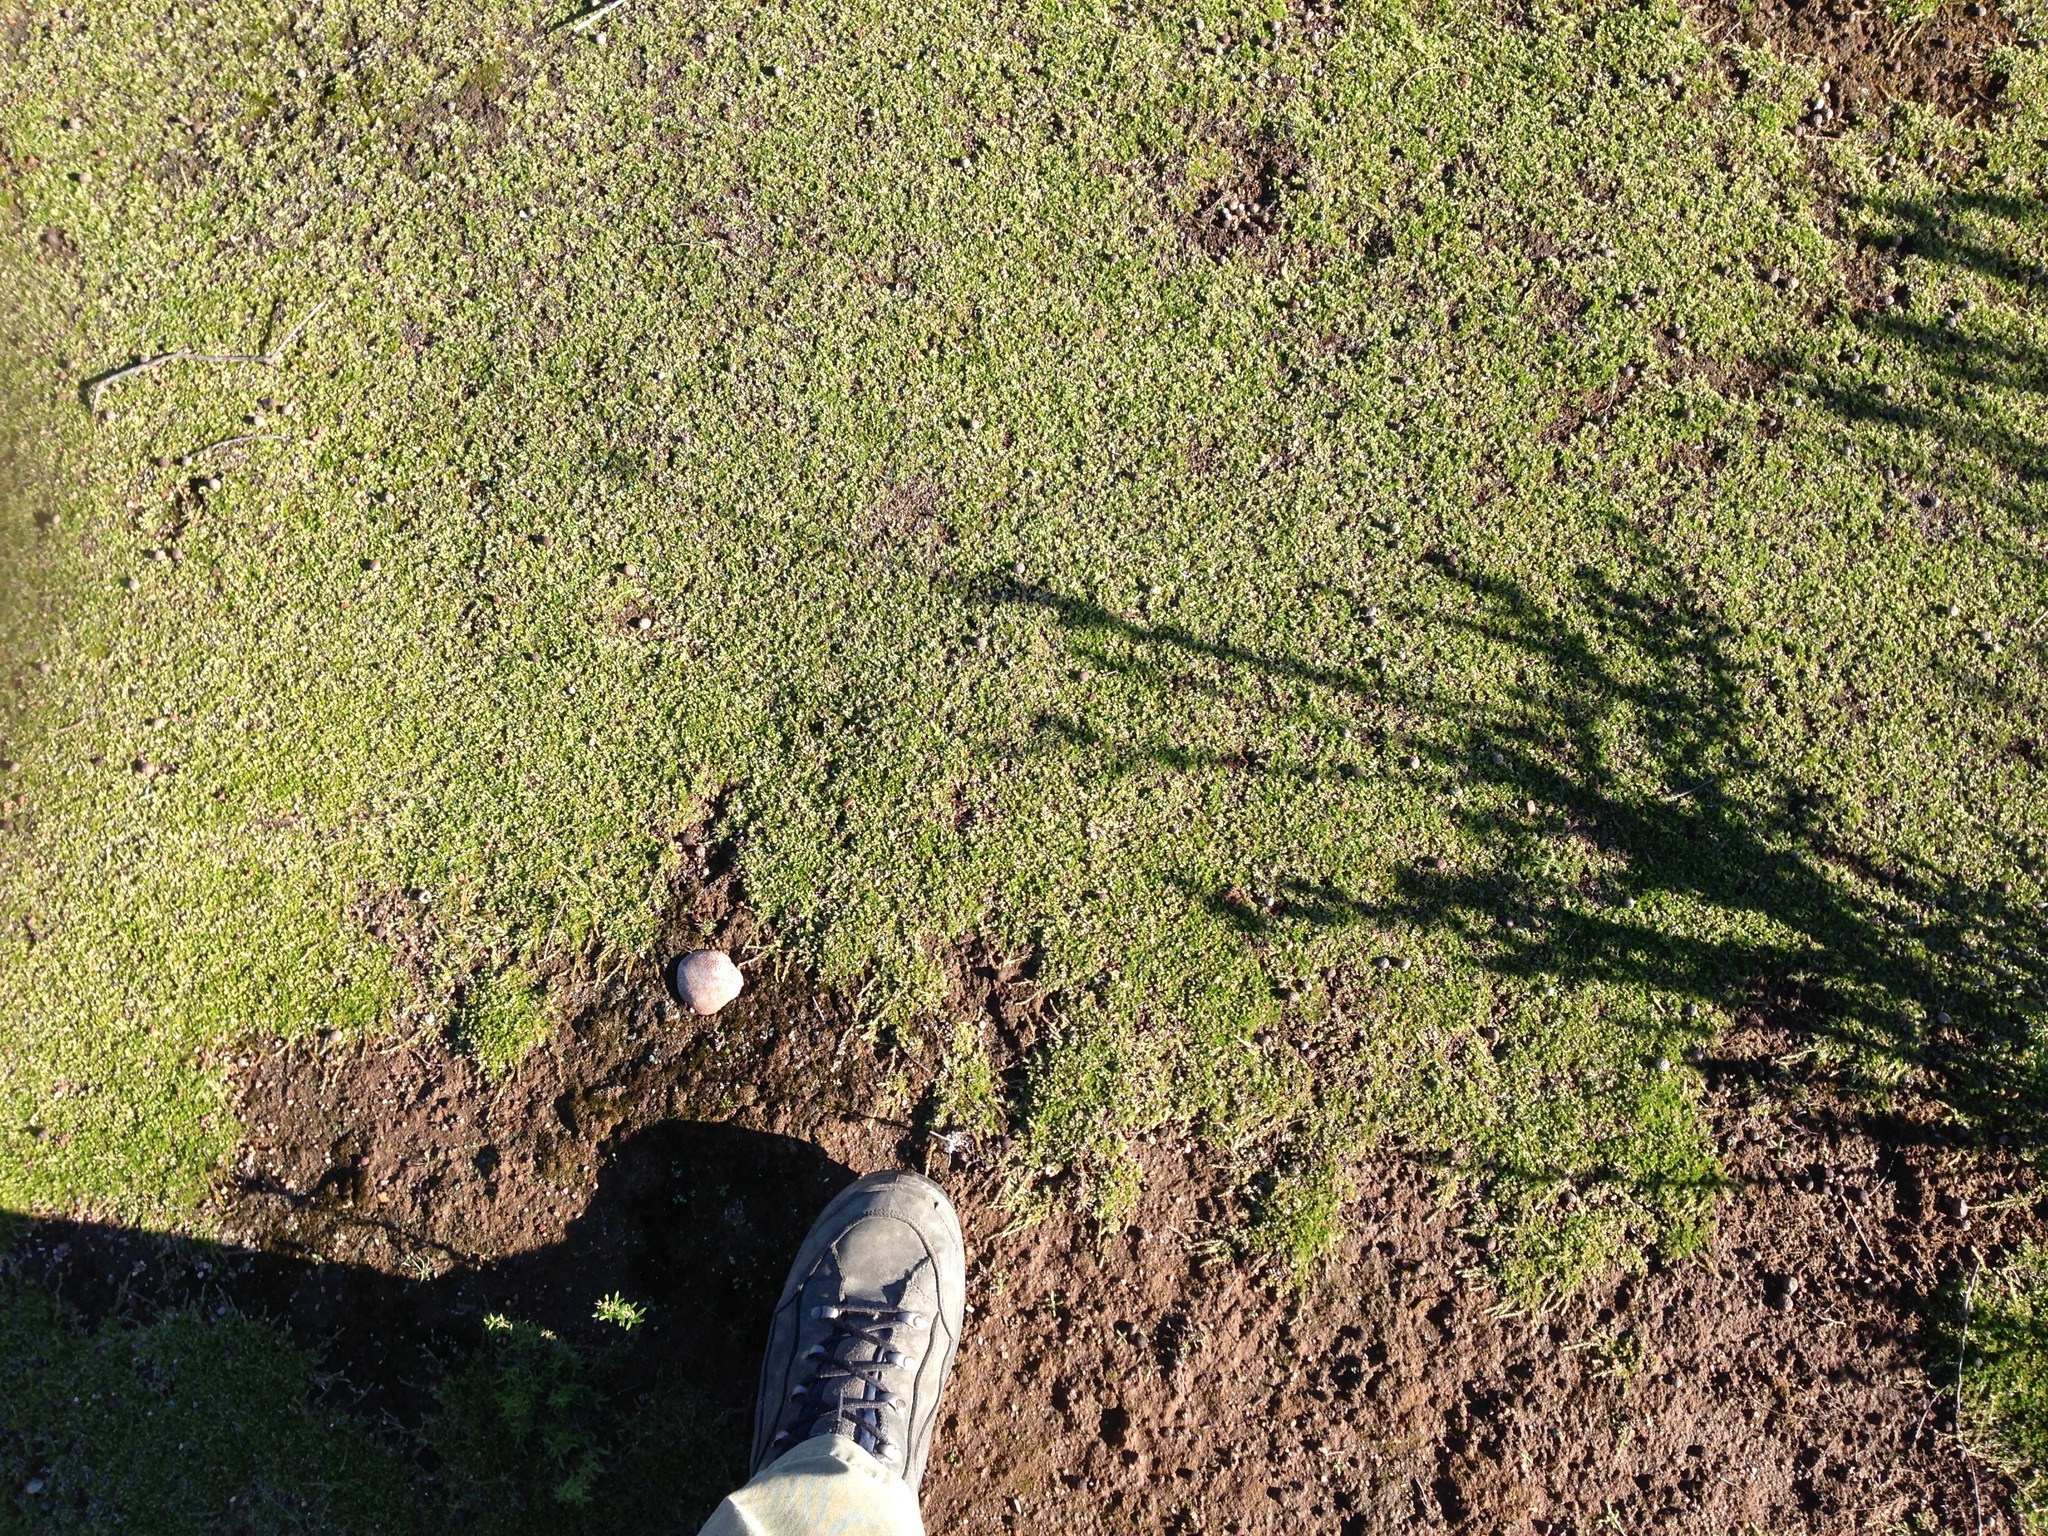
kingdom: Plantae
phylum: Tracheophyta
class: Lycopodiopsida
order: Selaginellales
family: Selaginellaceae
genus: Selaginella
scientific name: Selaginella cinerascens
